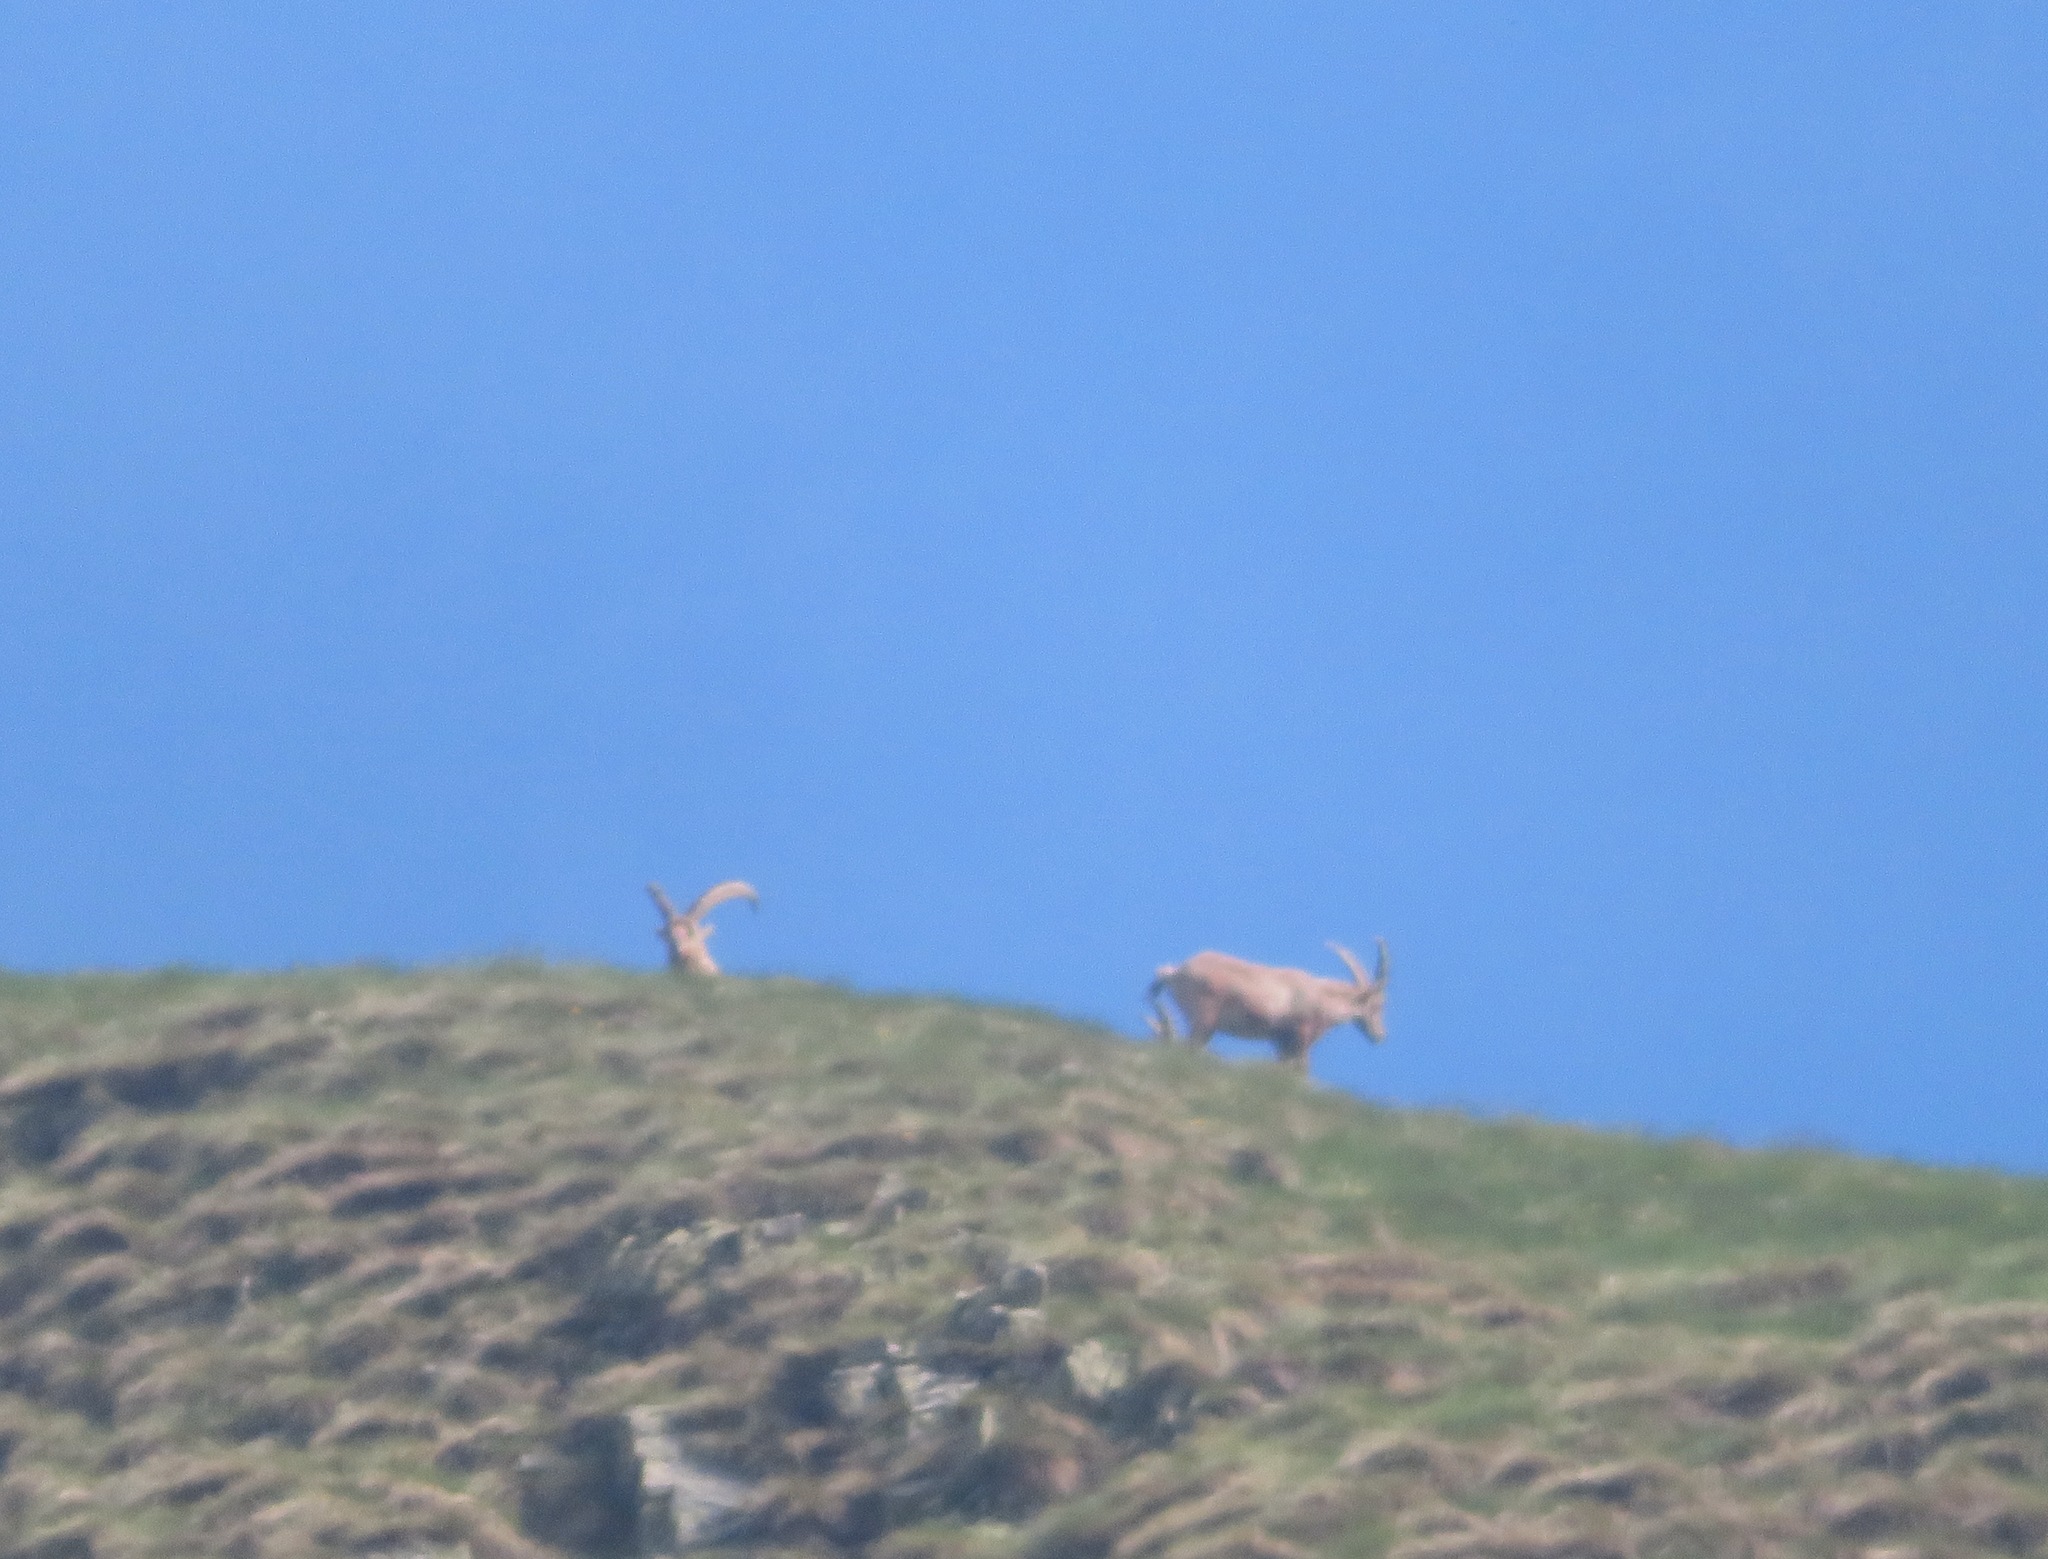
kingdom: Animalia
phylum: Chordata
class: Mammalia
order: Artiodactyla
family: Bovidae
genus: Capra
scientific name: Capra ibex
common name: Alpine ibex
